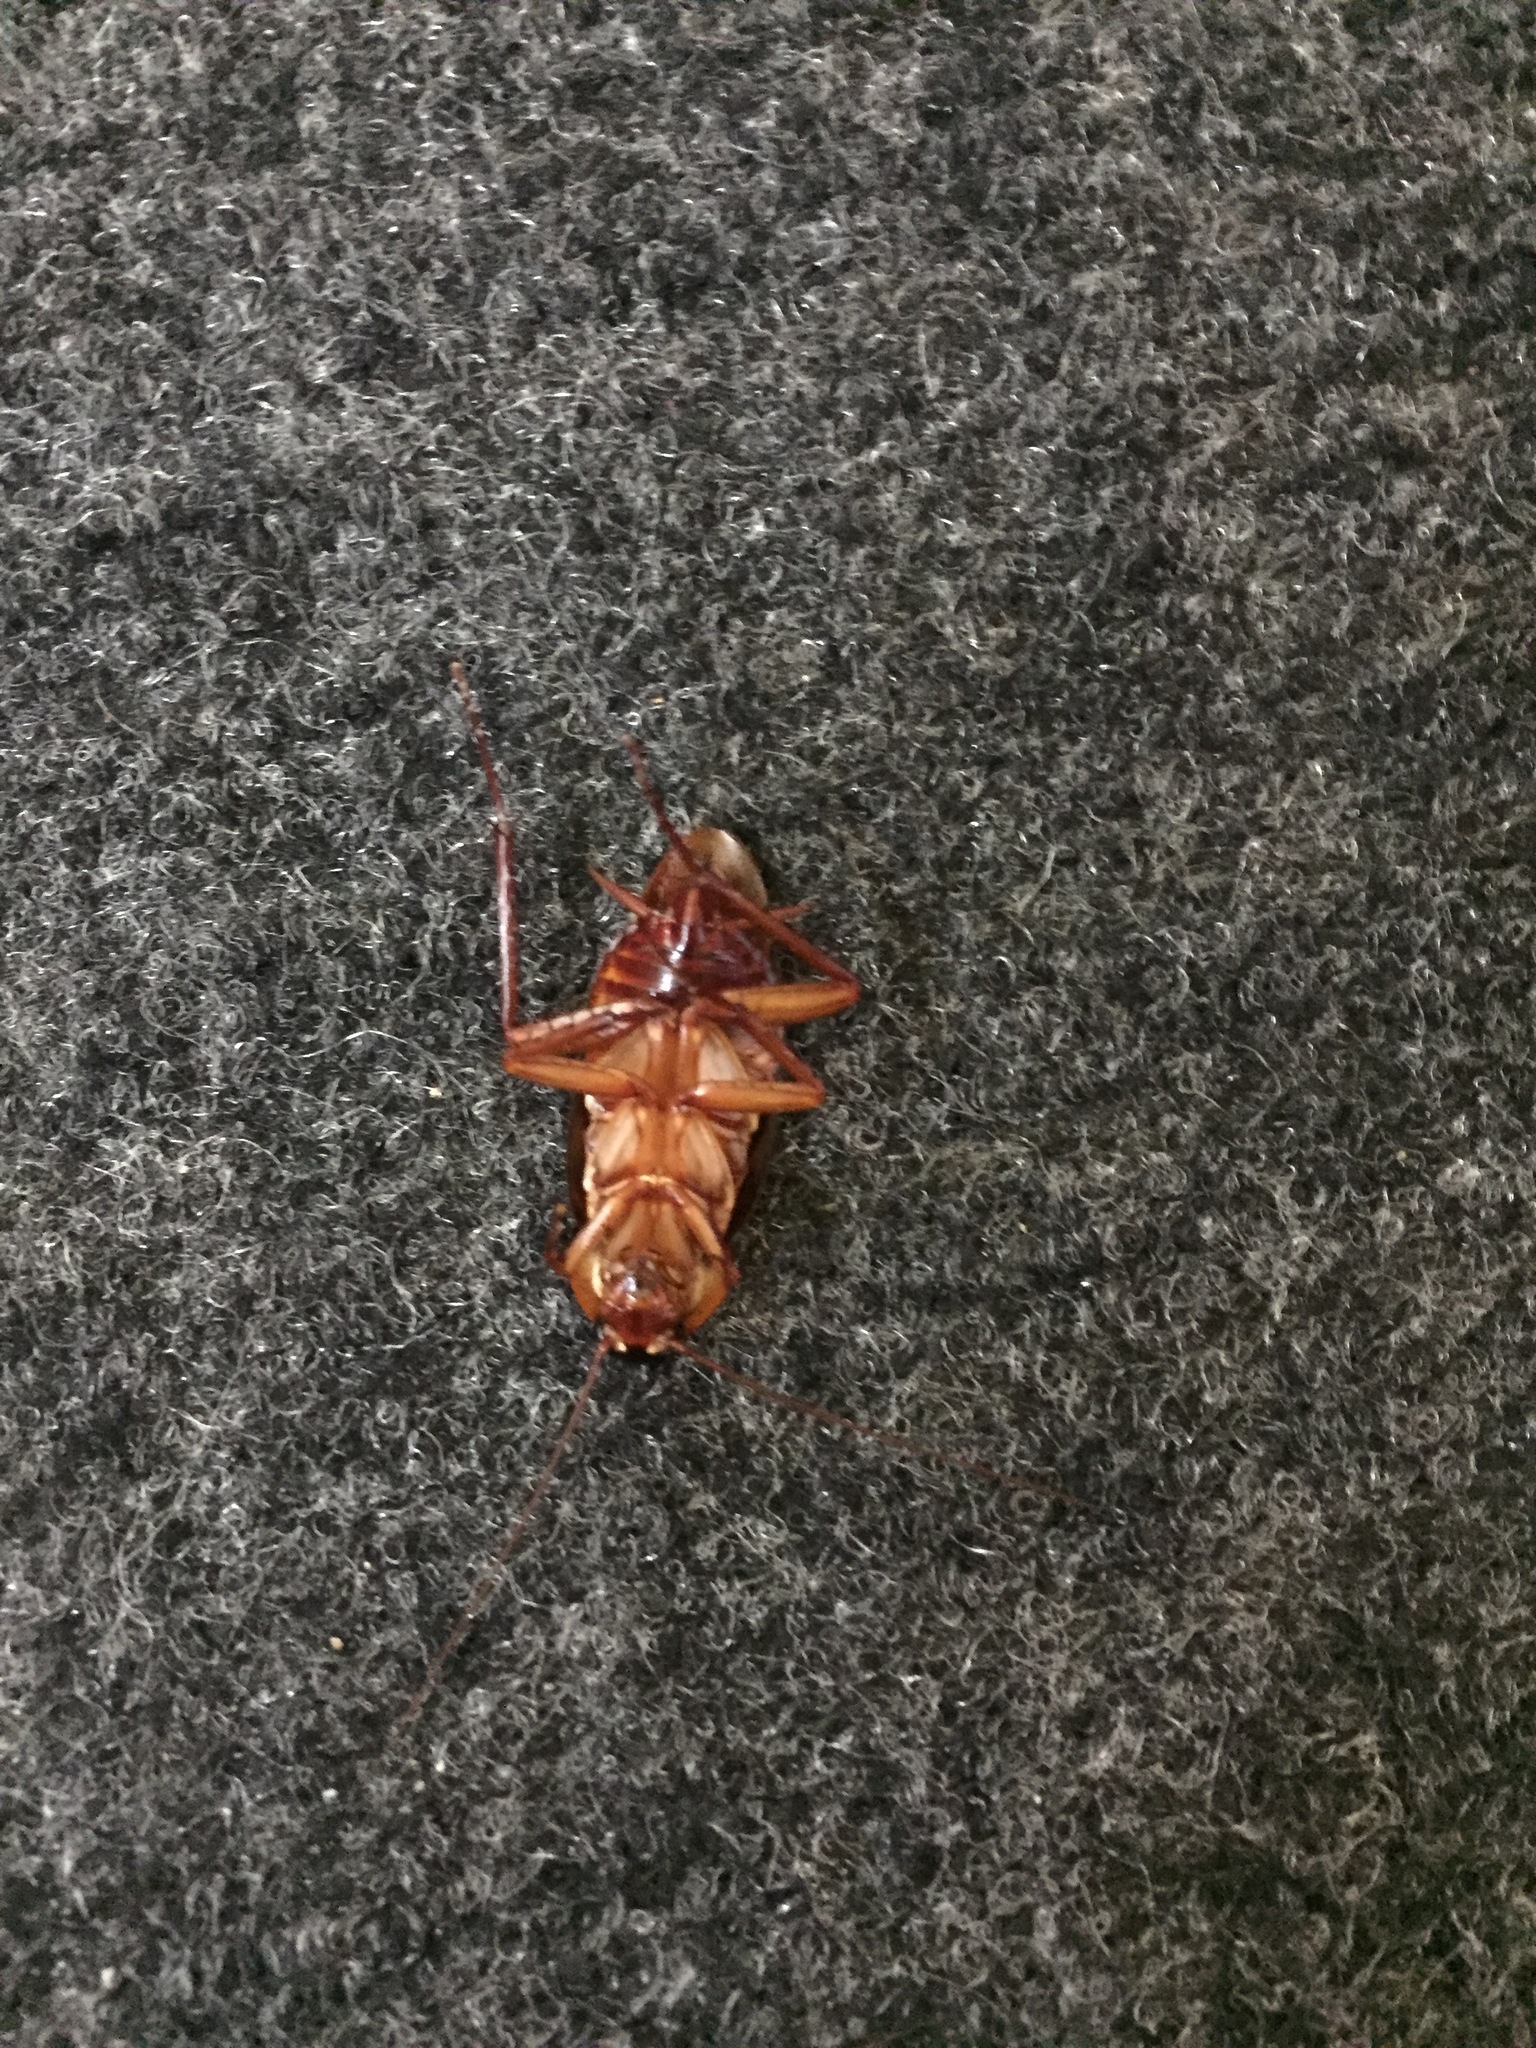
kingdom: Animalia
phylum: Arthropoda
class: Insecta
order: Blattodea
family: Blattidae
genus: Periplaneta
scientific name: Periplaneta americana
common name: American cockroach
